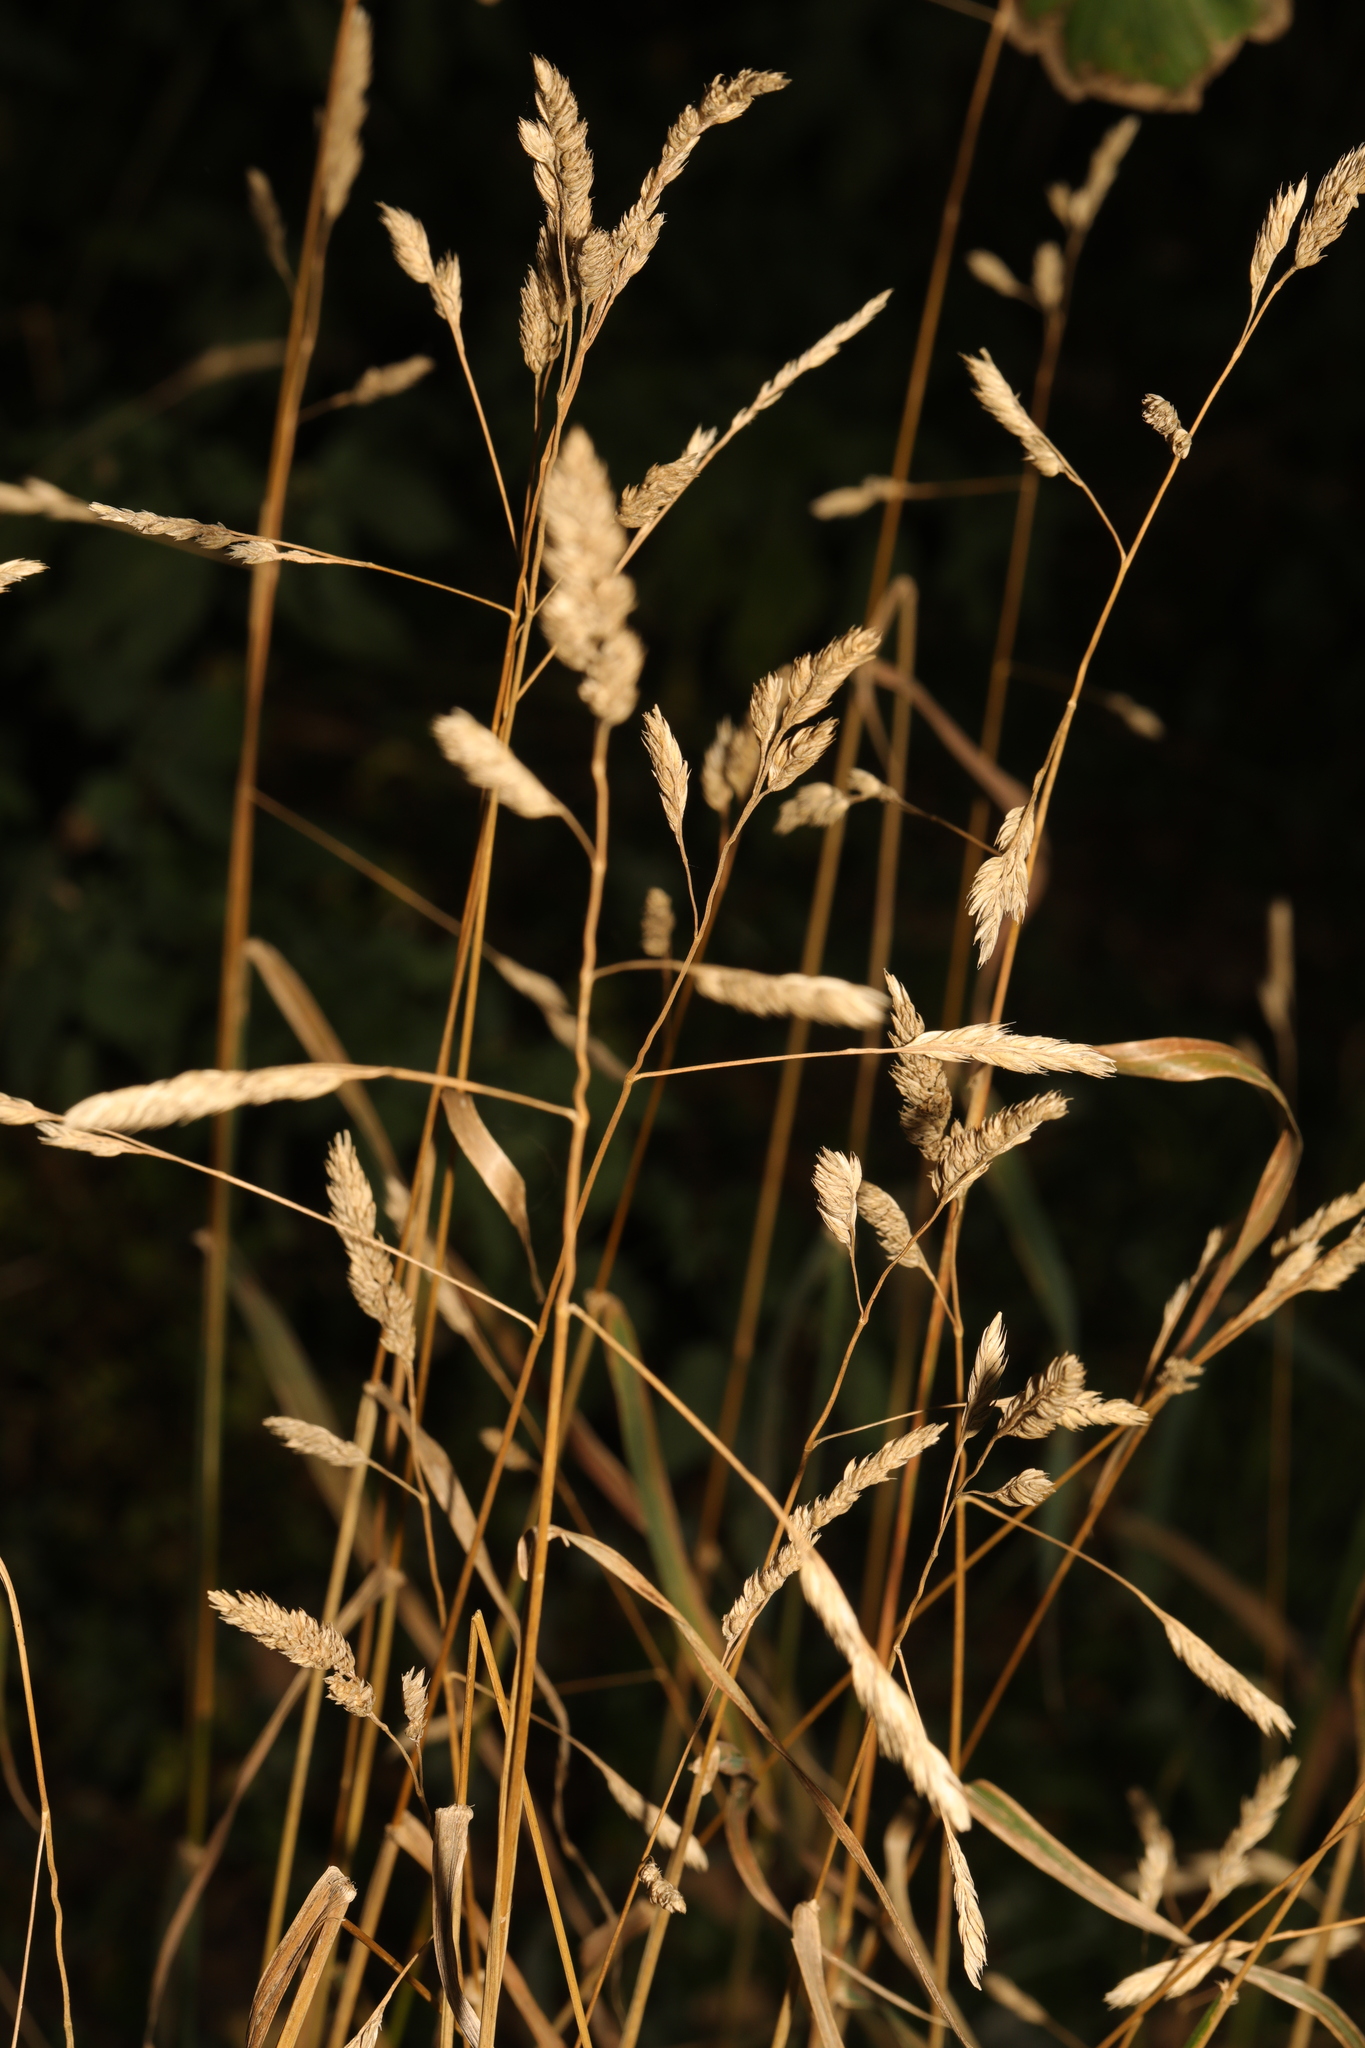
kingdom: Plantae
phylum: Tracheophyta
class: Liliopsida
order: Poales
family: Poaceae
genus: Dactylis
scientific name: Dactylis glomerata
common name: Orchardgrass
